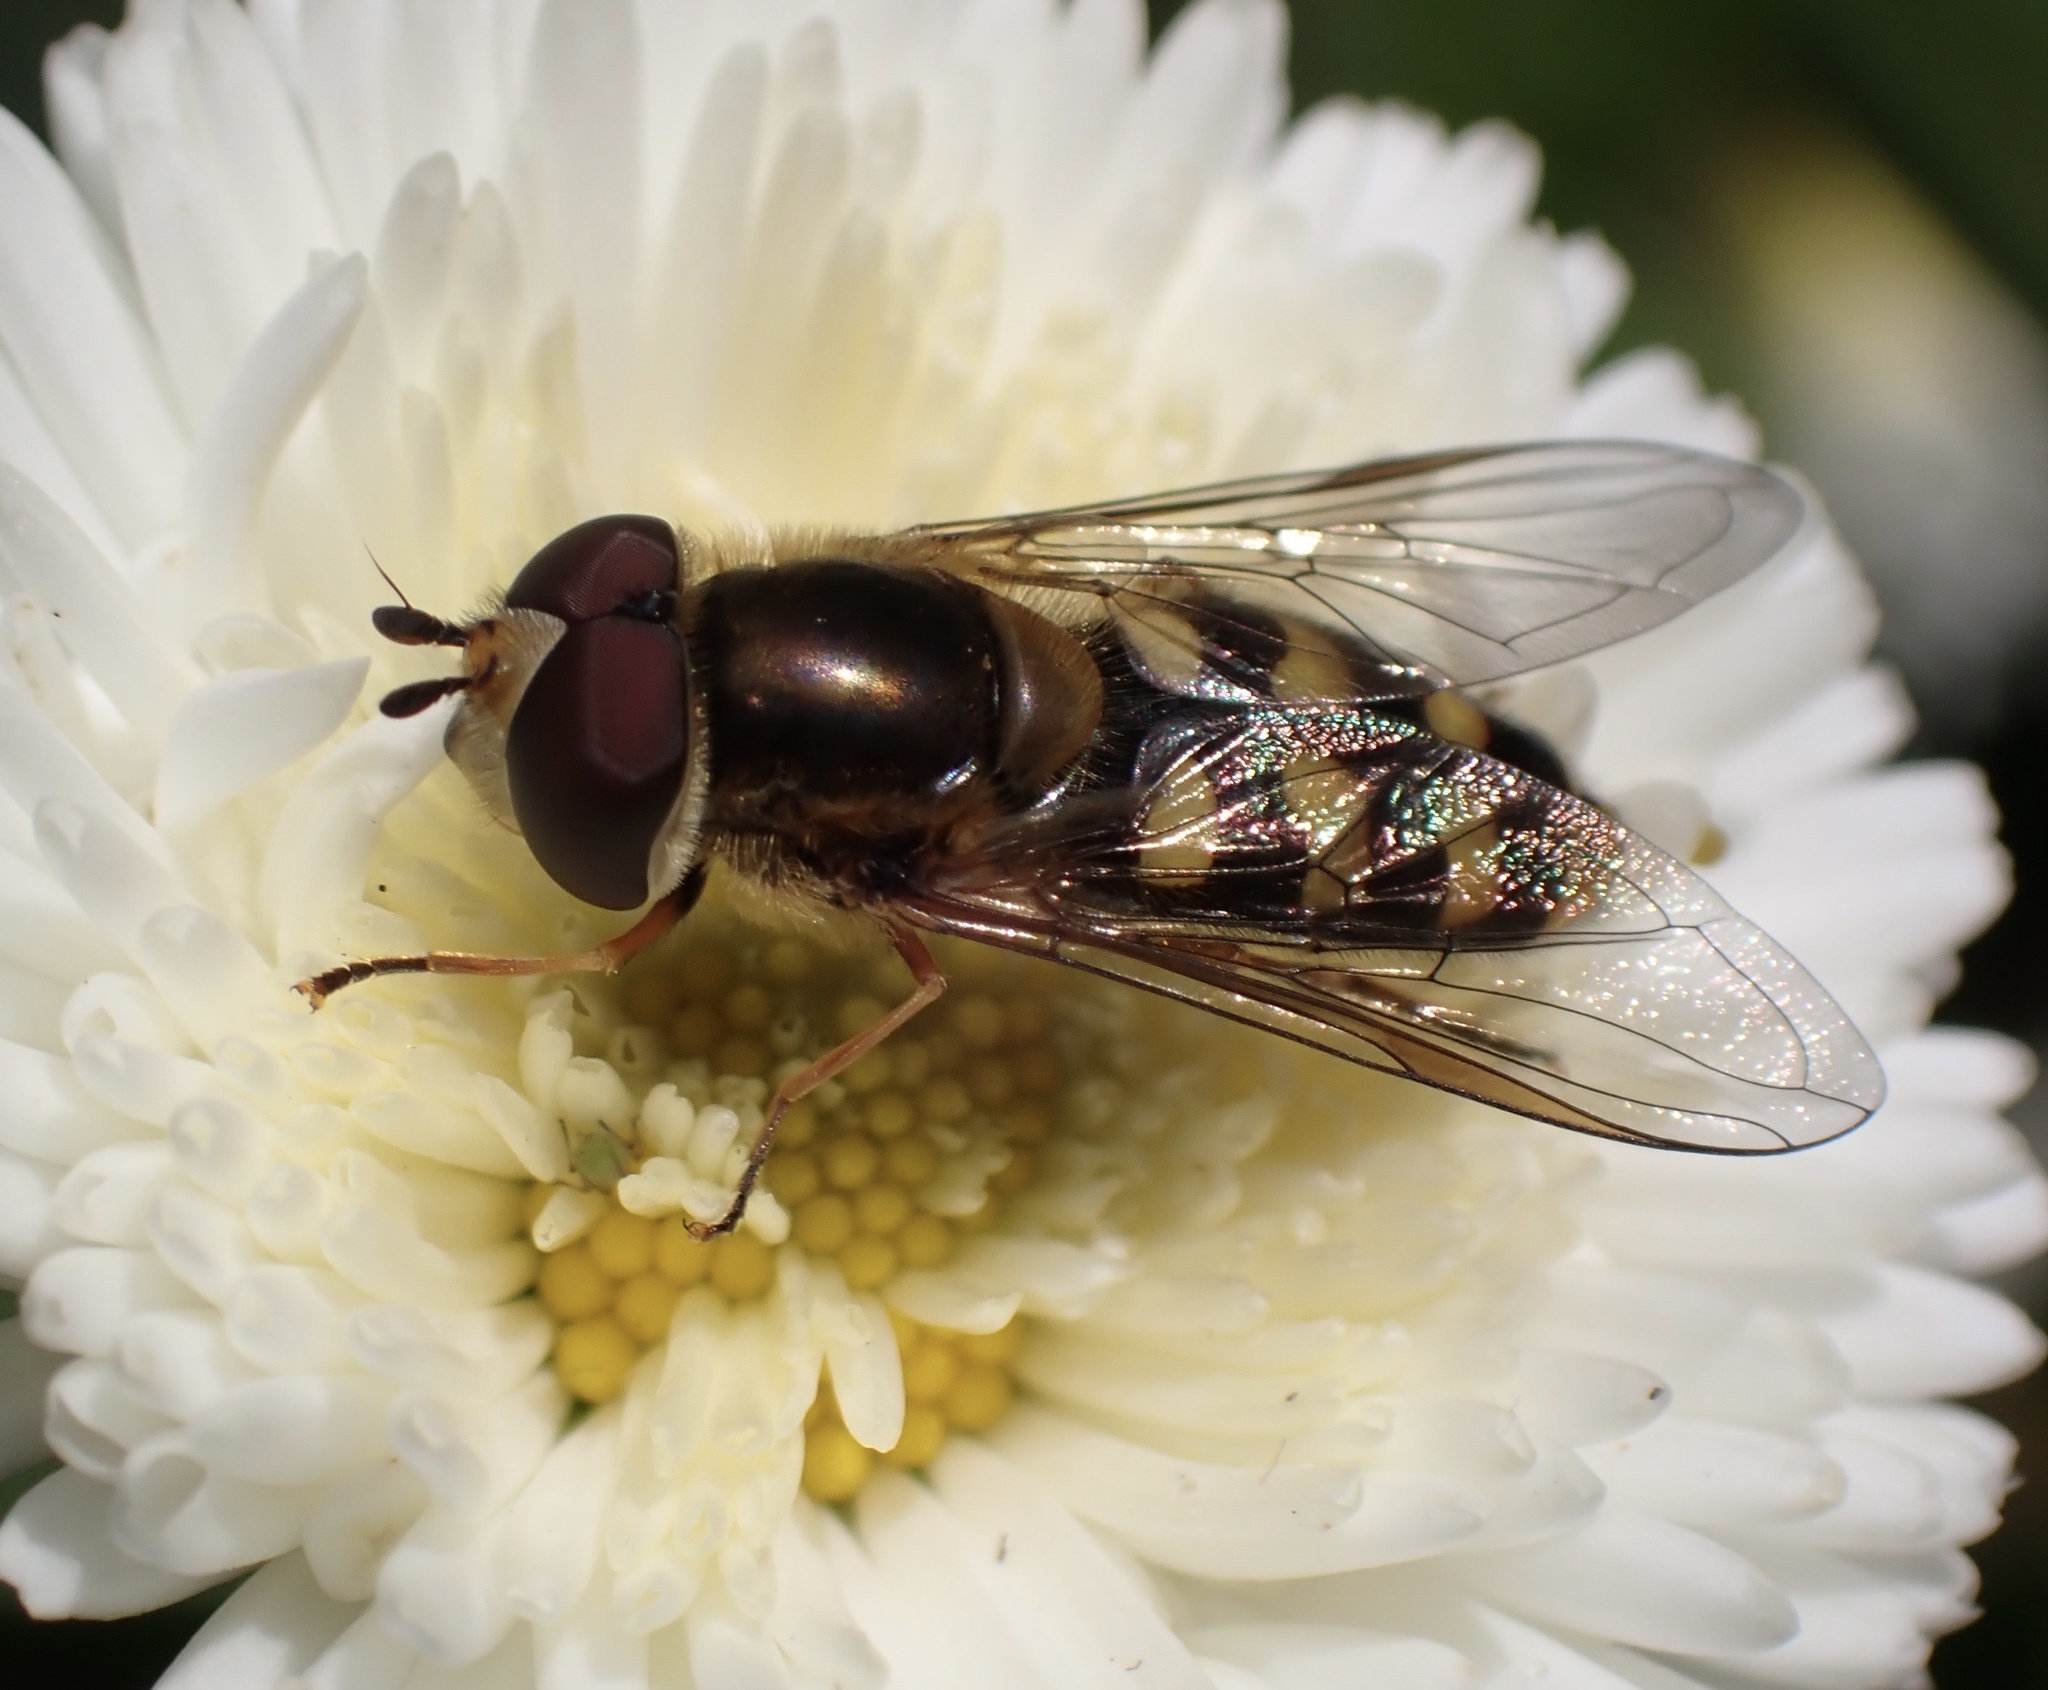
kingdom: Animalia
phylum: Arthropoda
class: Insecta
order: Diptera
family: Syrphidae
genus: Eupeodes
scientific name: Eupeodes
